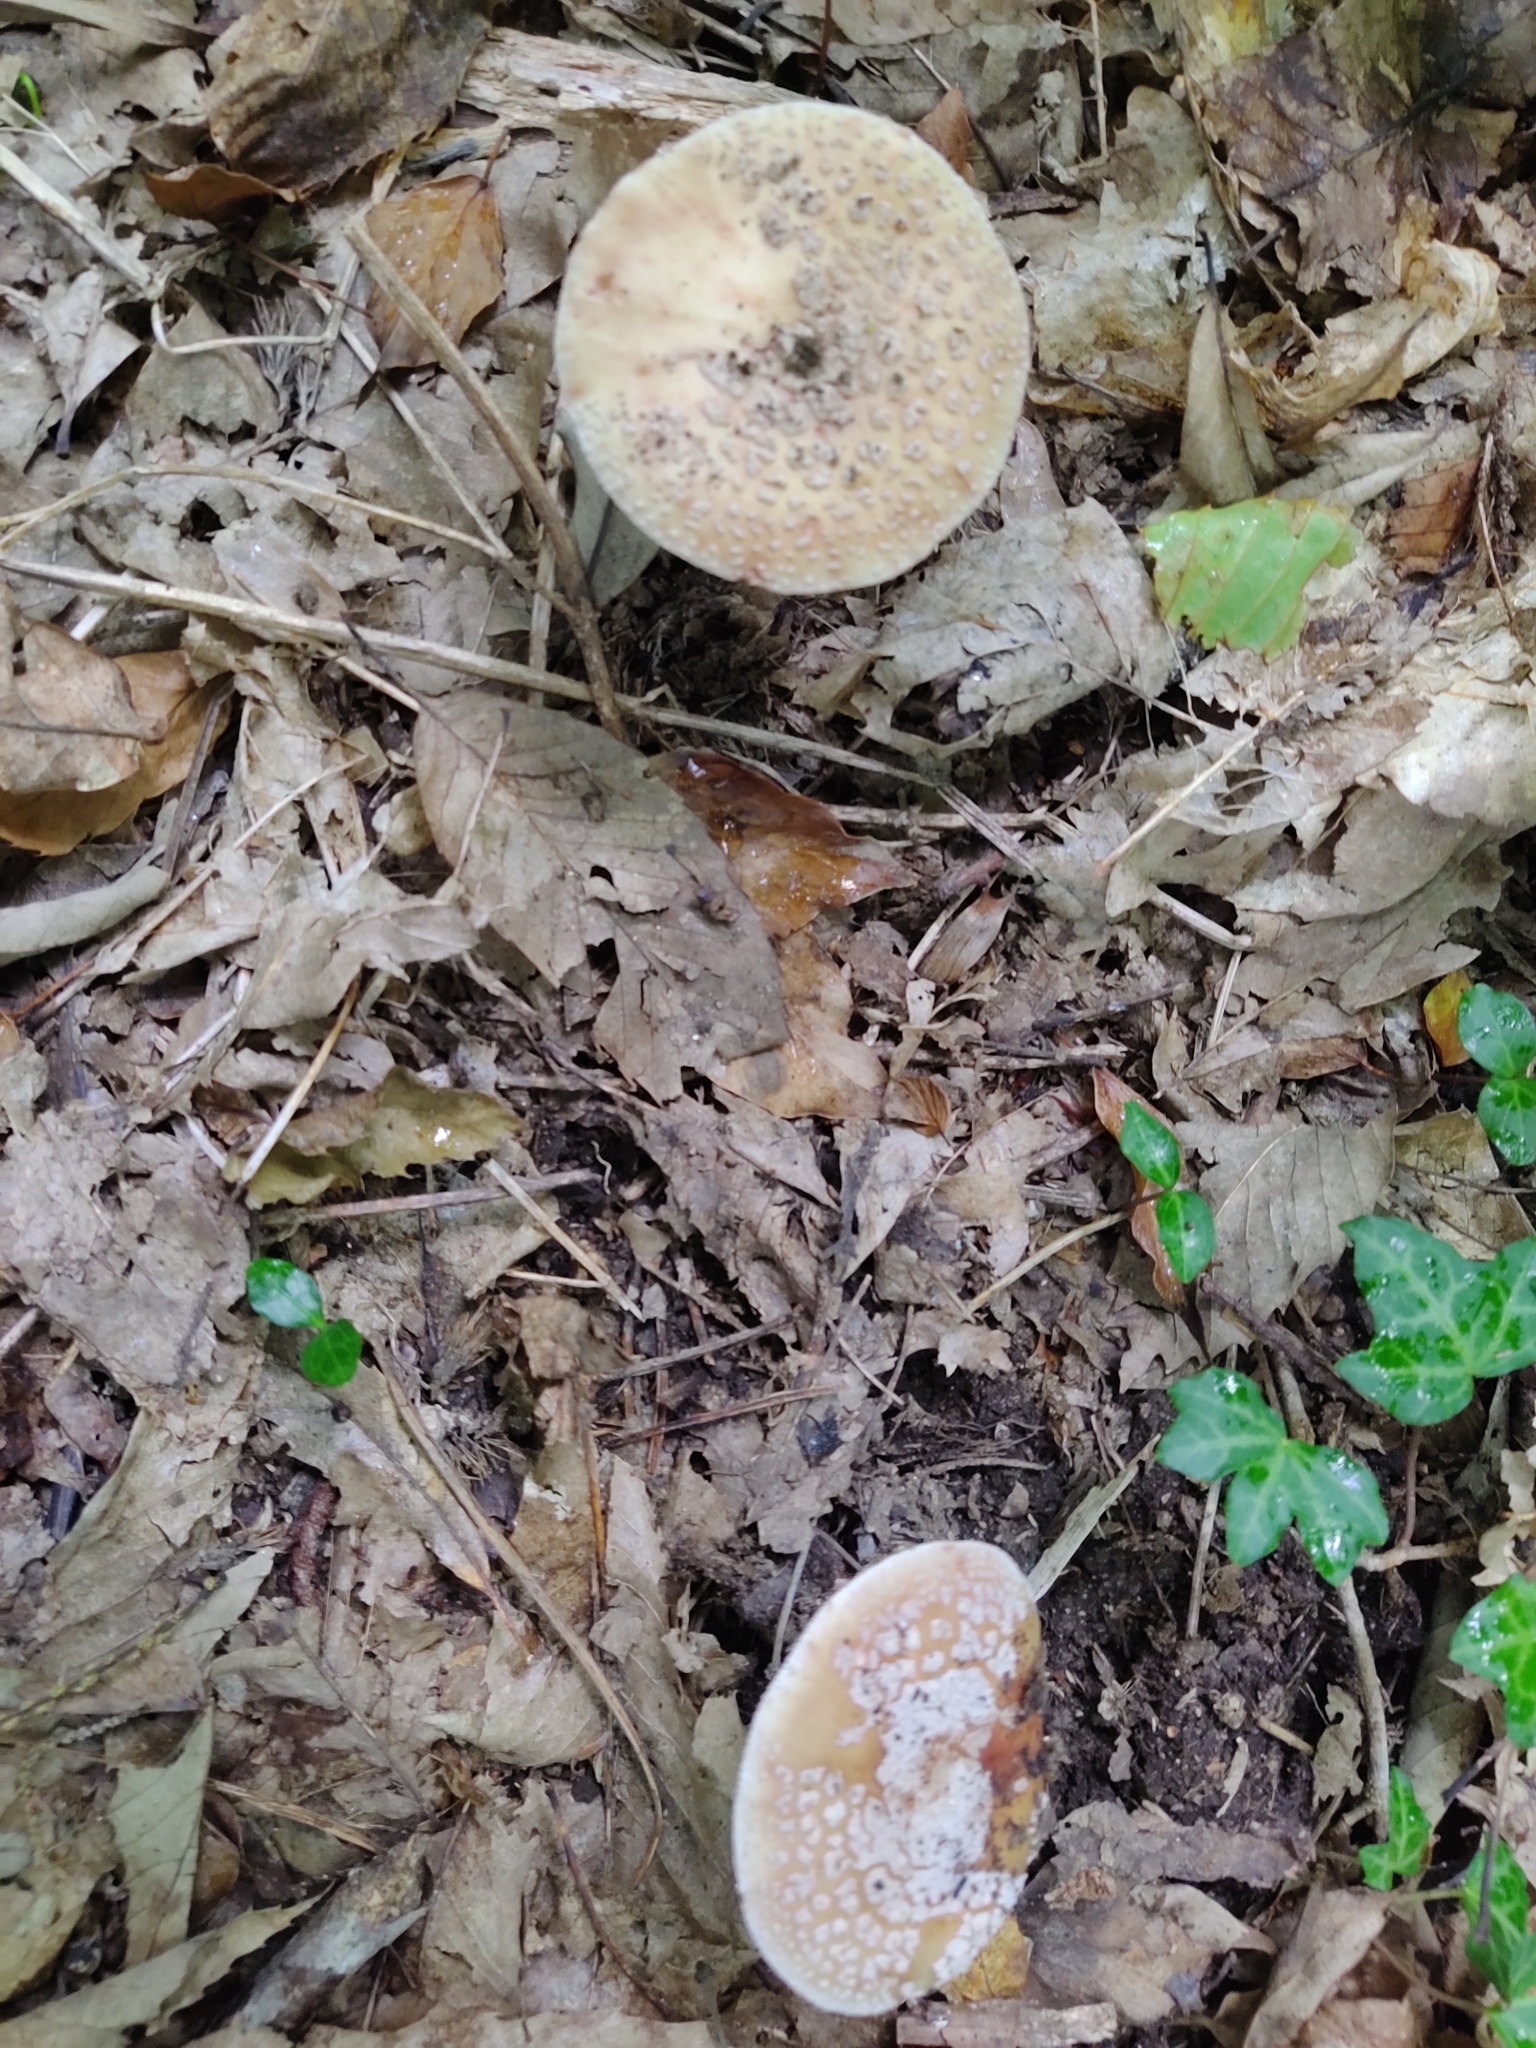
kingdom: Fungi
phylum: Basidiomycota
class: Agaricomycetes
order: Agaricales
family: Amanitaceae
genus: Amanita
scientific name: Amanita rubescens
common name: Blusher
